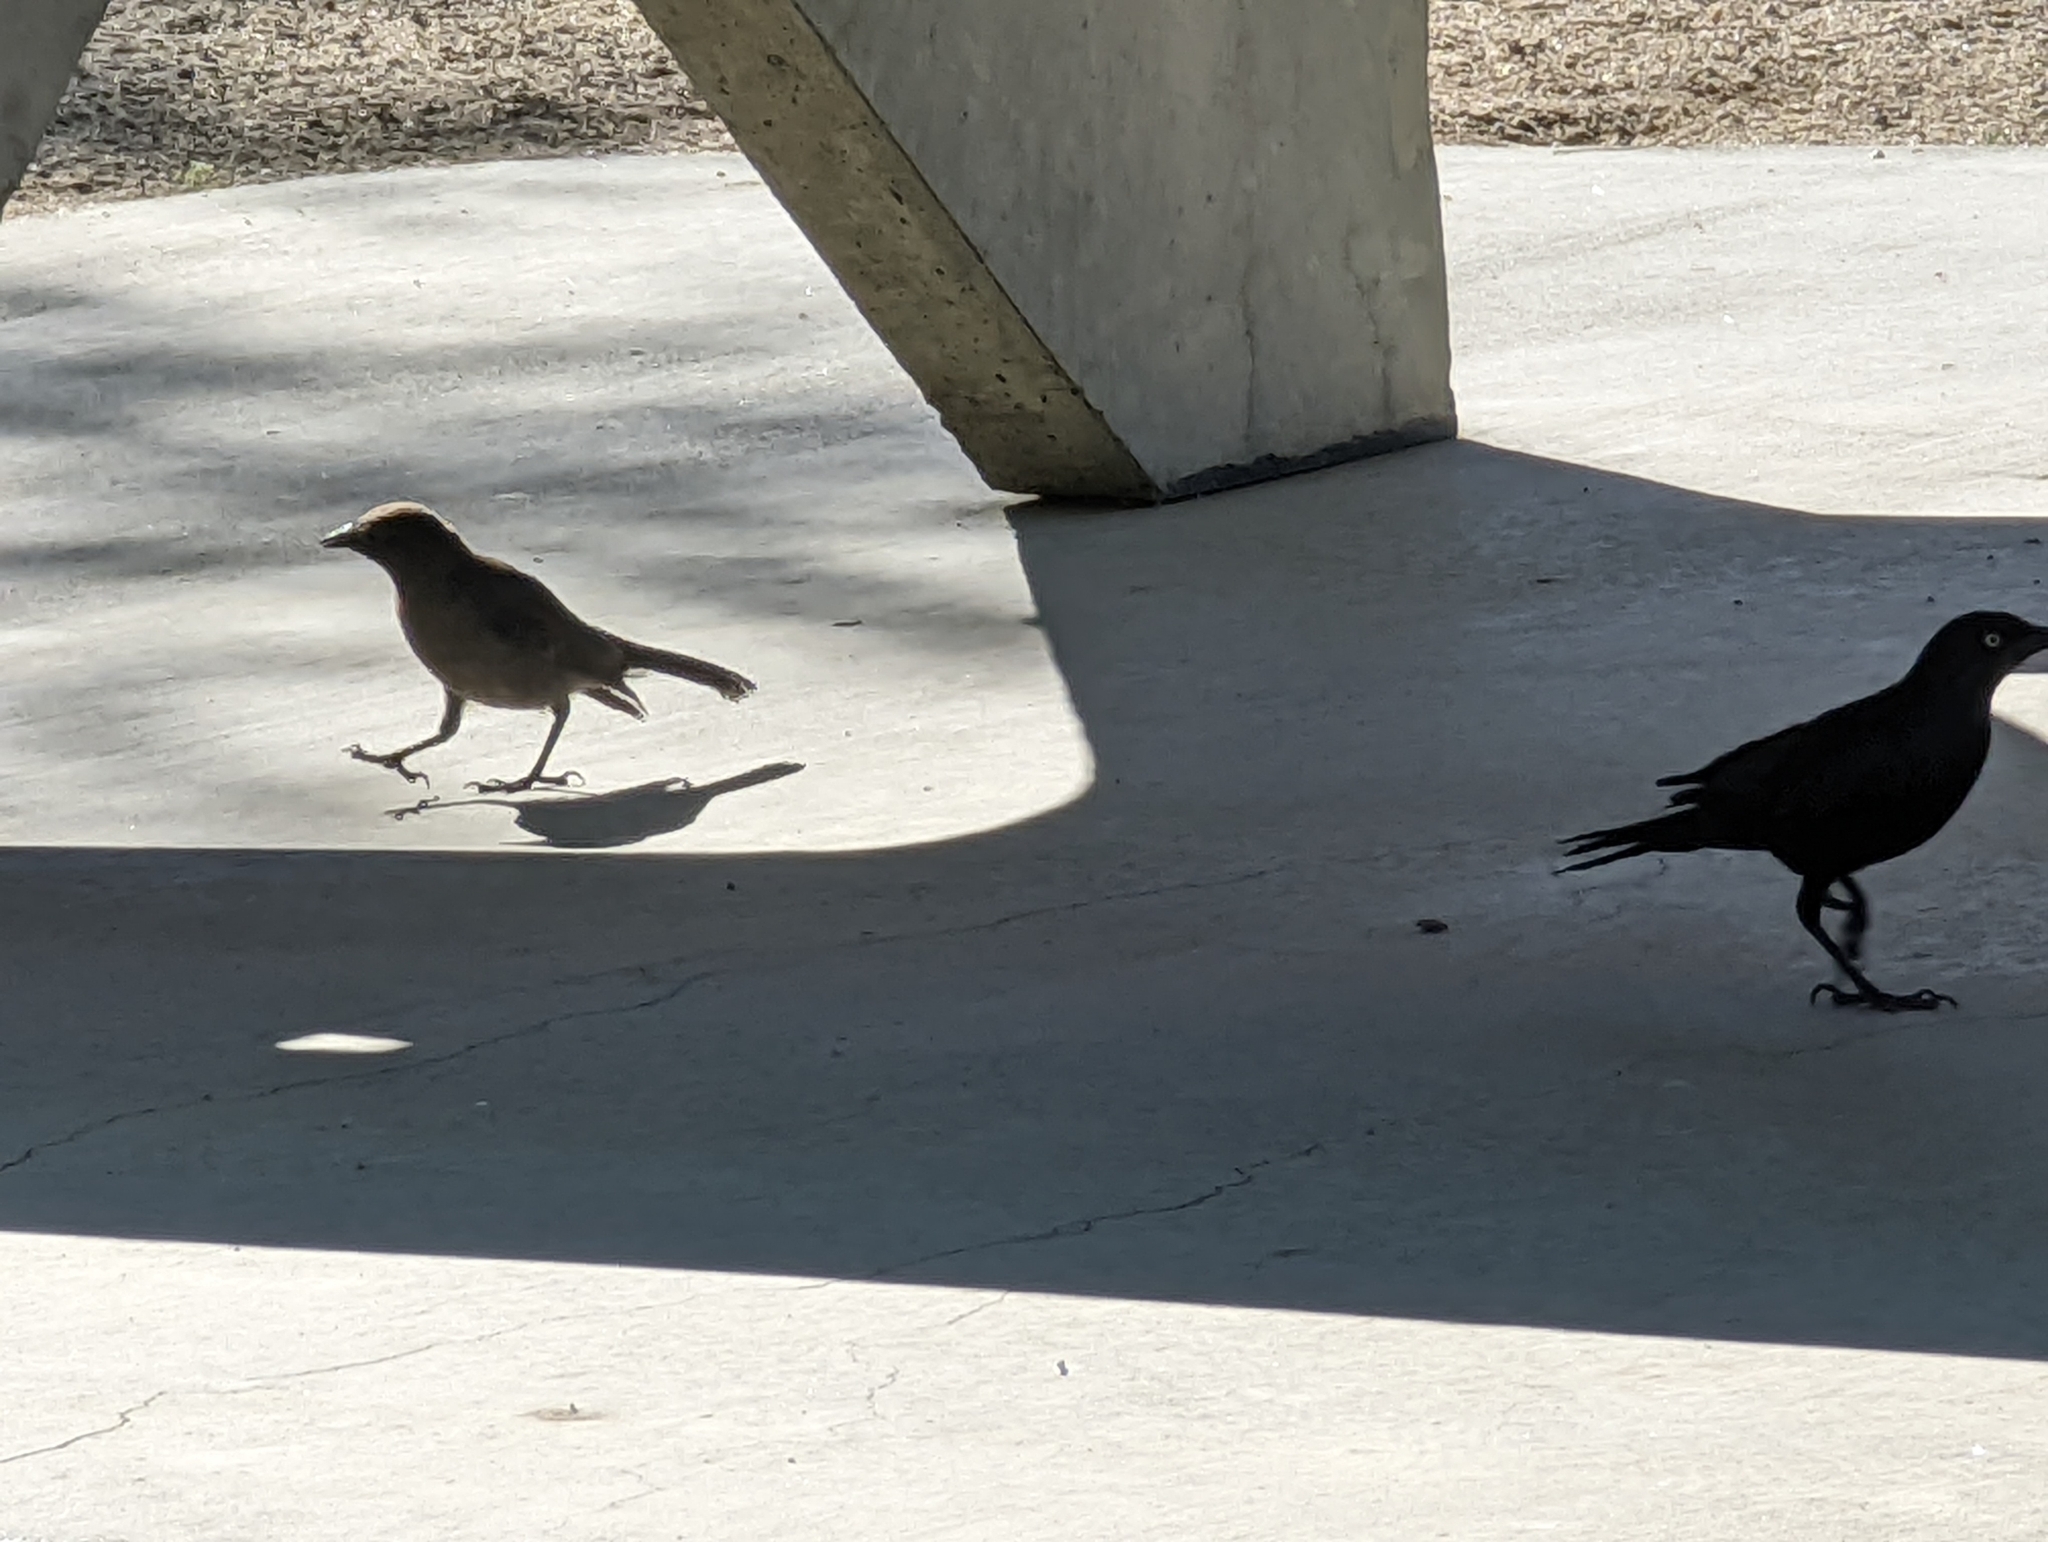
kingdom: Animalia
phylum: Chordata
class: Aves
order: Passeriformes
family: Icteridae
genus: Euphagus
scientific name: Euphagus cyanocephalus
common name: Brewer's blackbird
